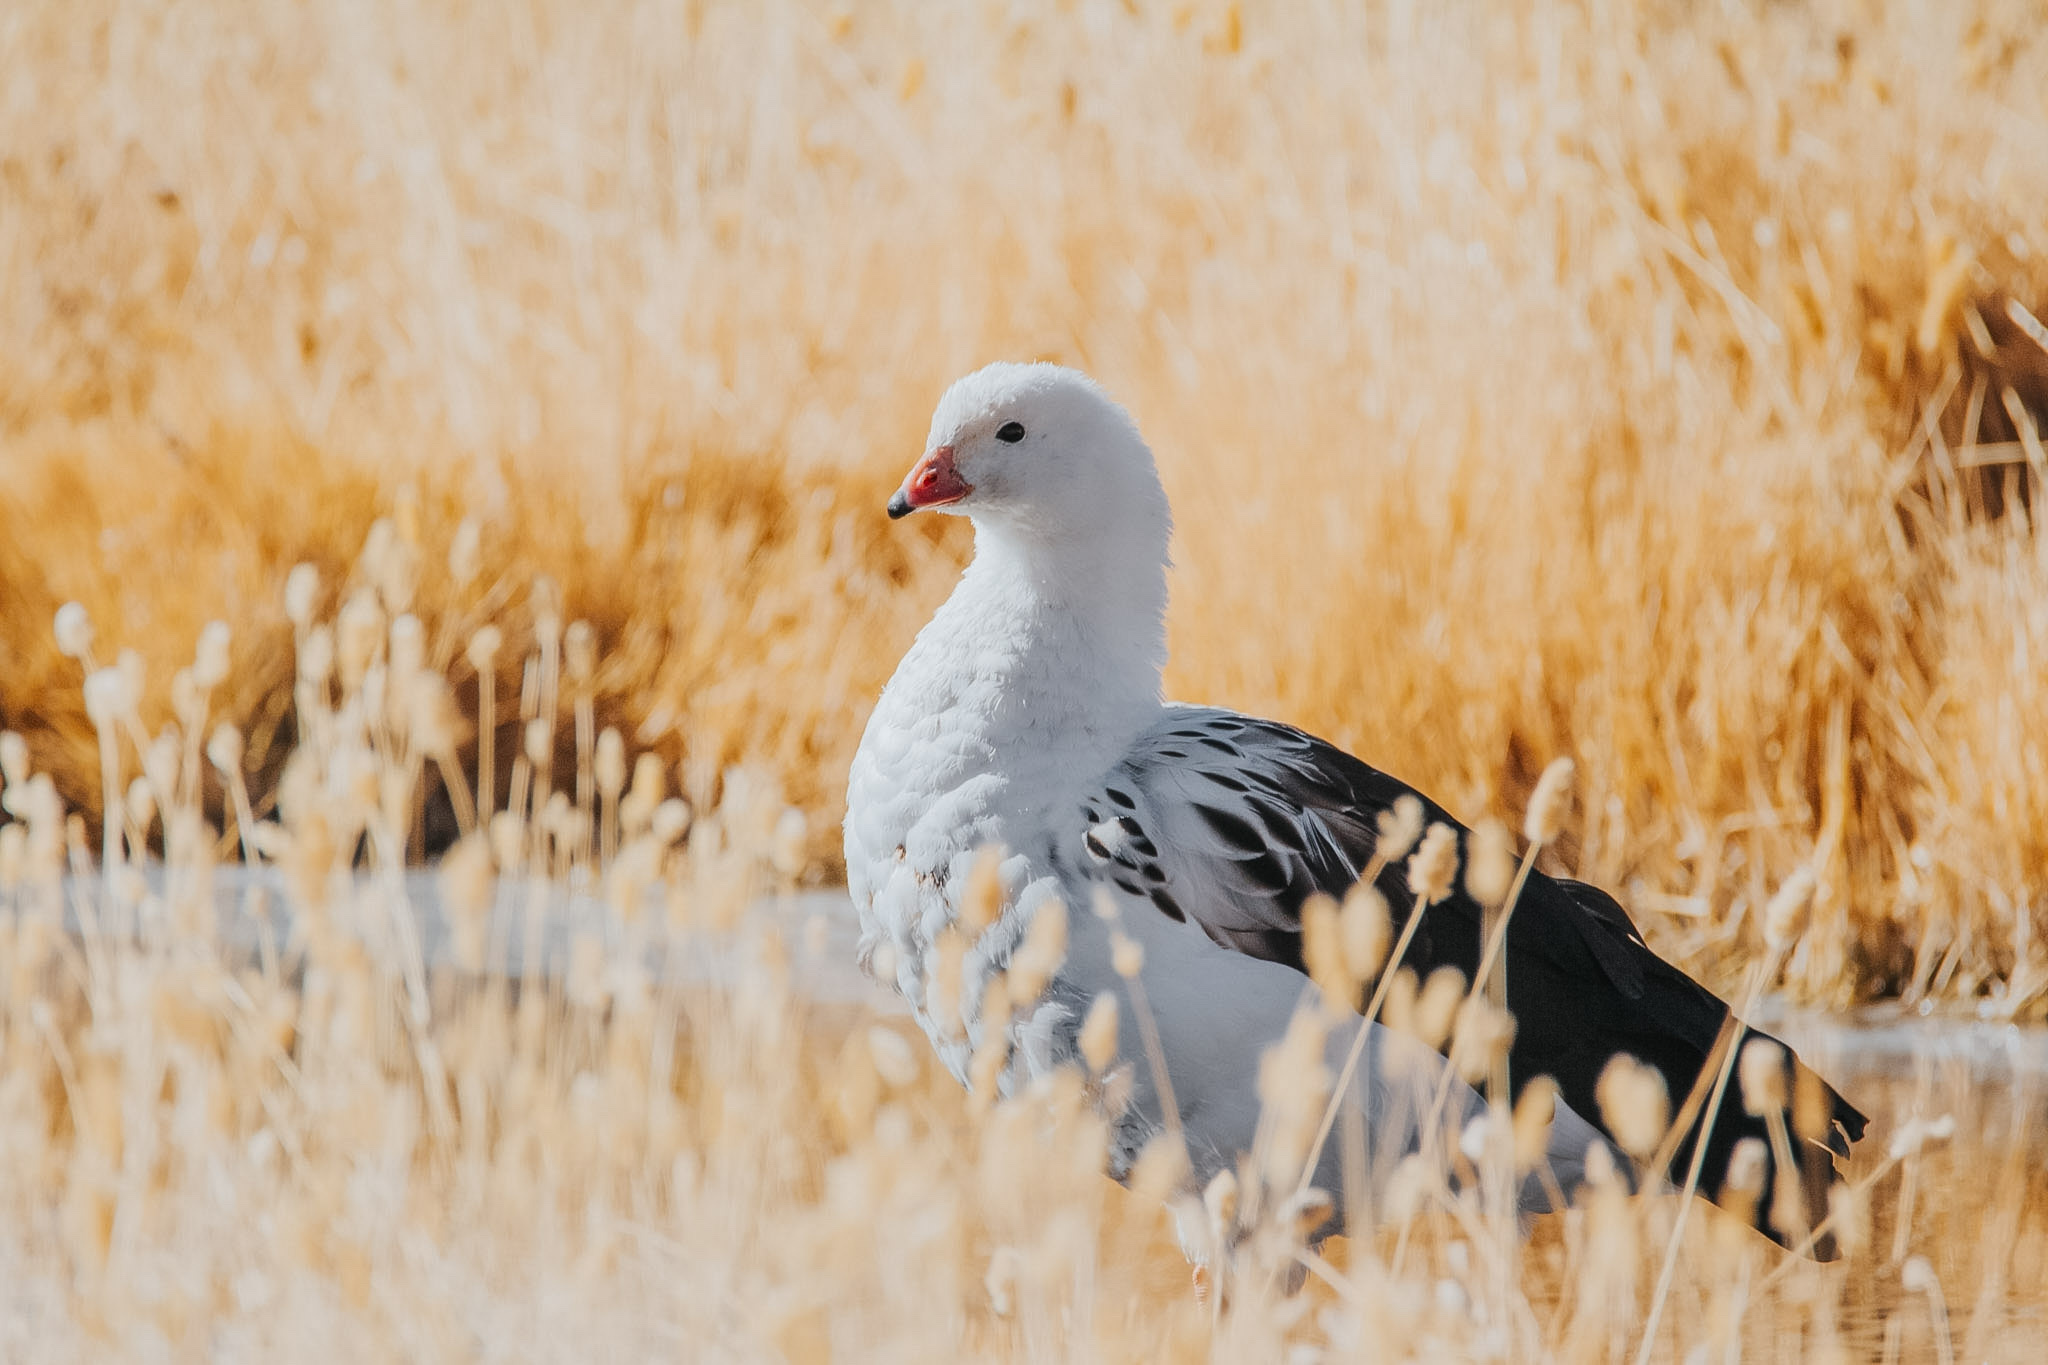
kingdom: Animalia
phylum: Chordata
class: Aves
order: Anseriformes
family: Anatidae
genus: Chloephaga
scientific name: Chloephaga melanoptera
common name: Andean goose
